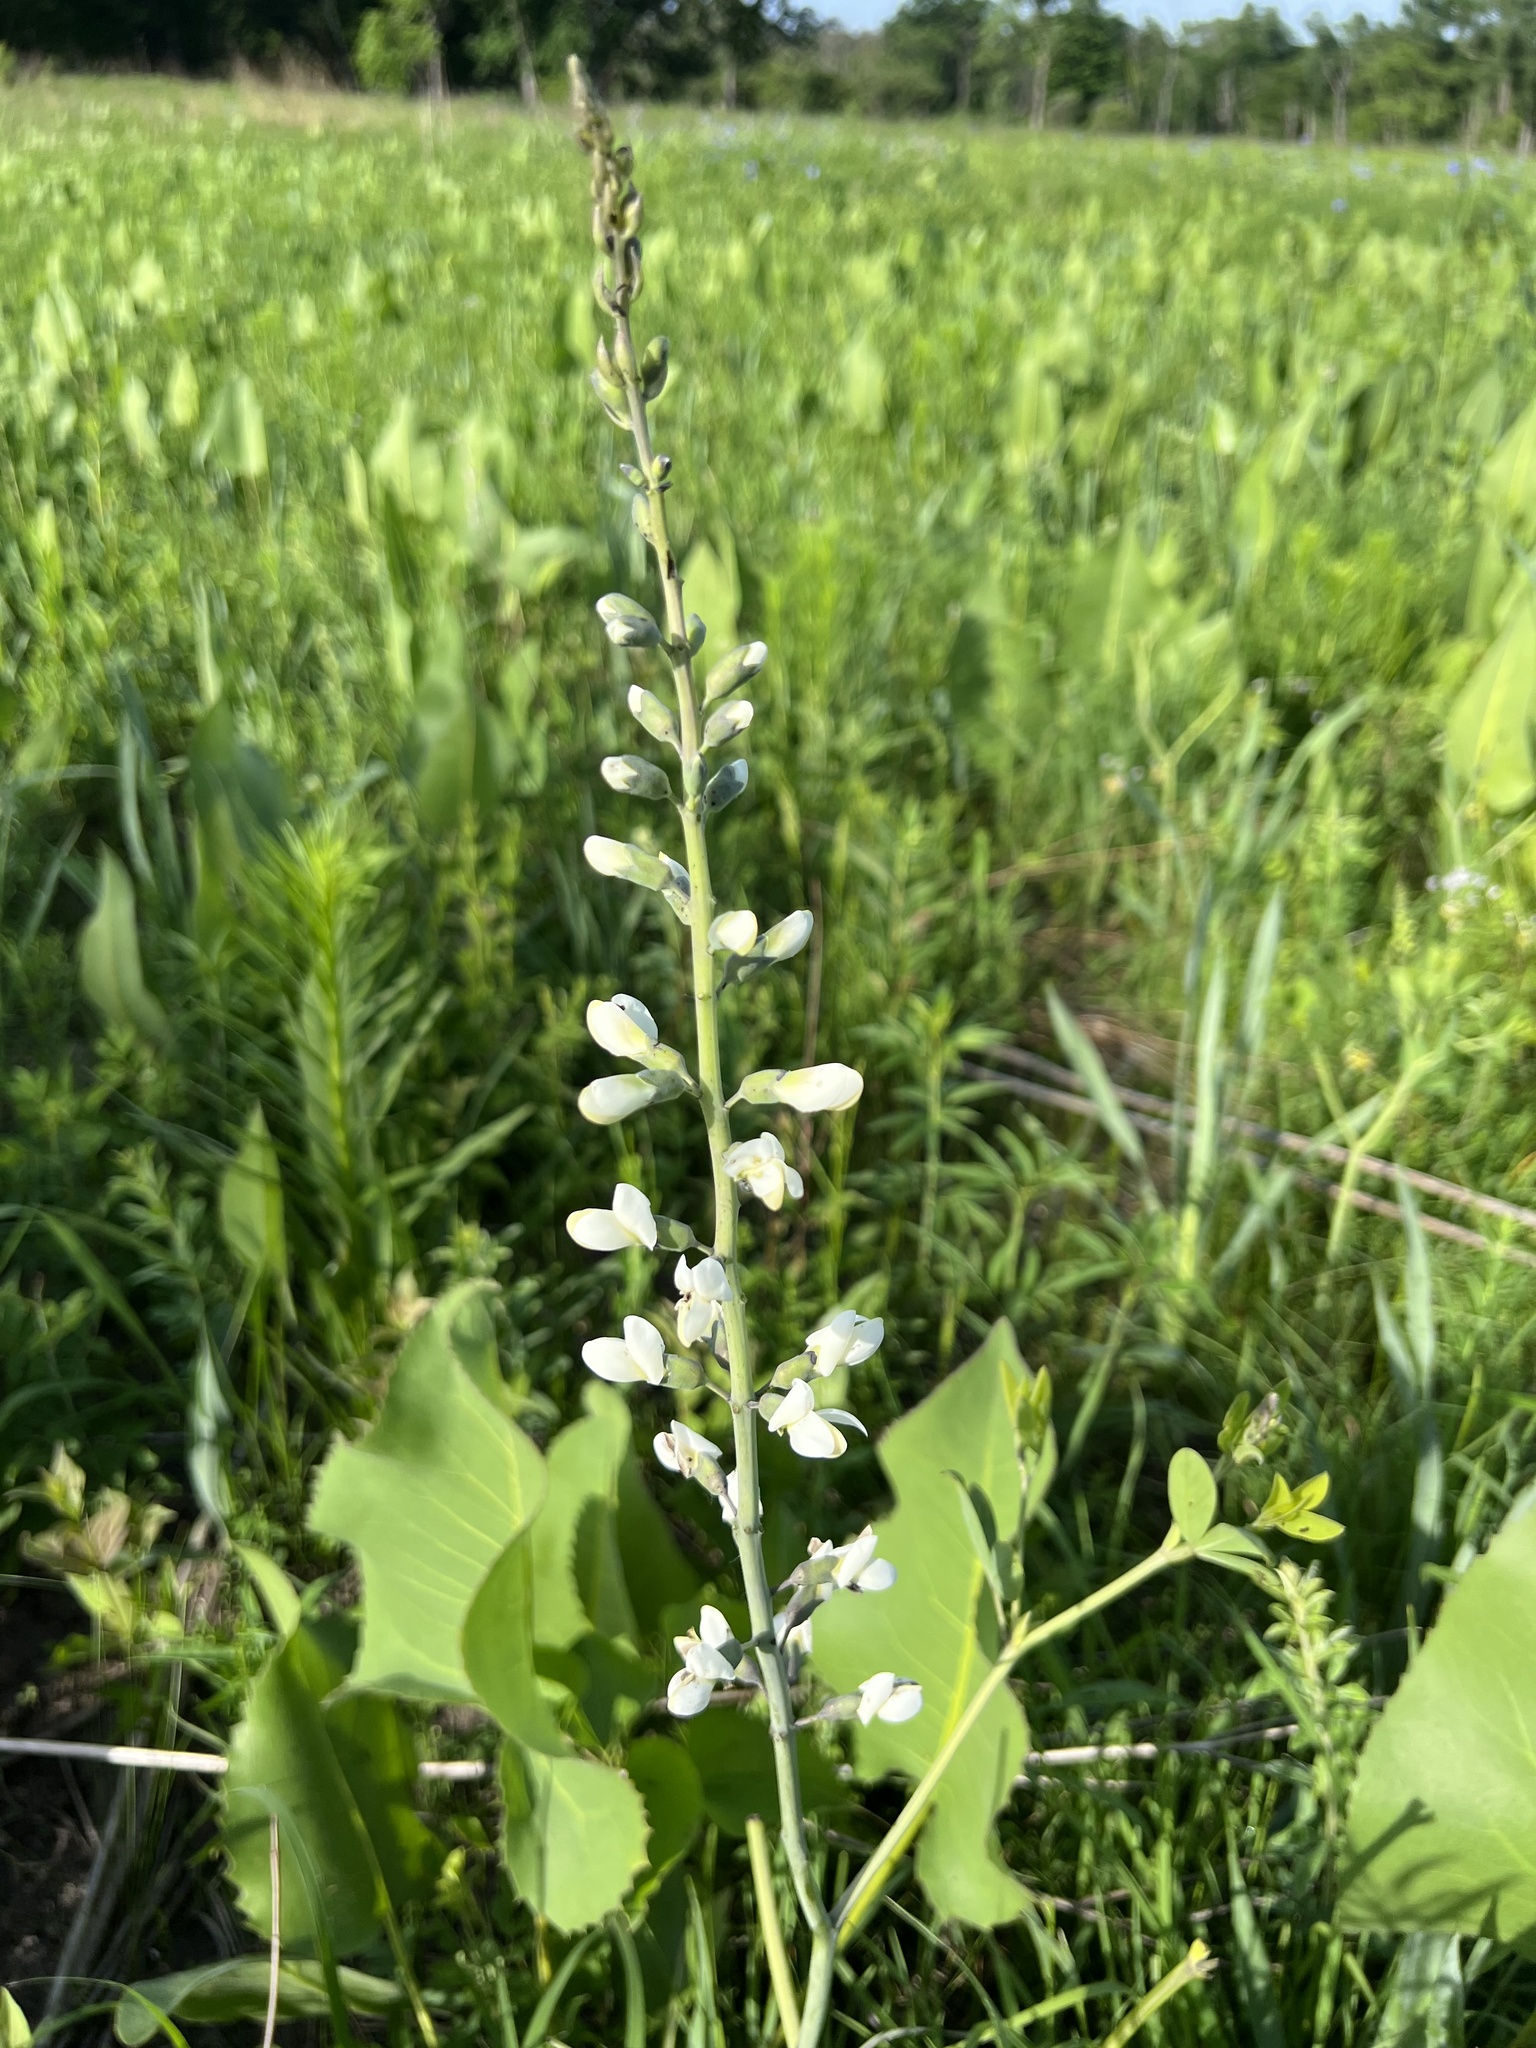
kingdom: Plantae
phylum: Tracheophyta
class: Magnoliopsida
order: Fabales
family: Fabaceae
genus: Baptisia
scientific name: Baptisia alba
